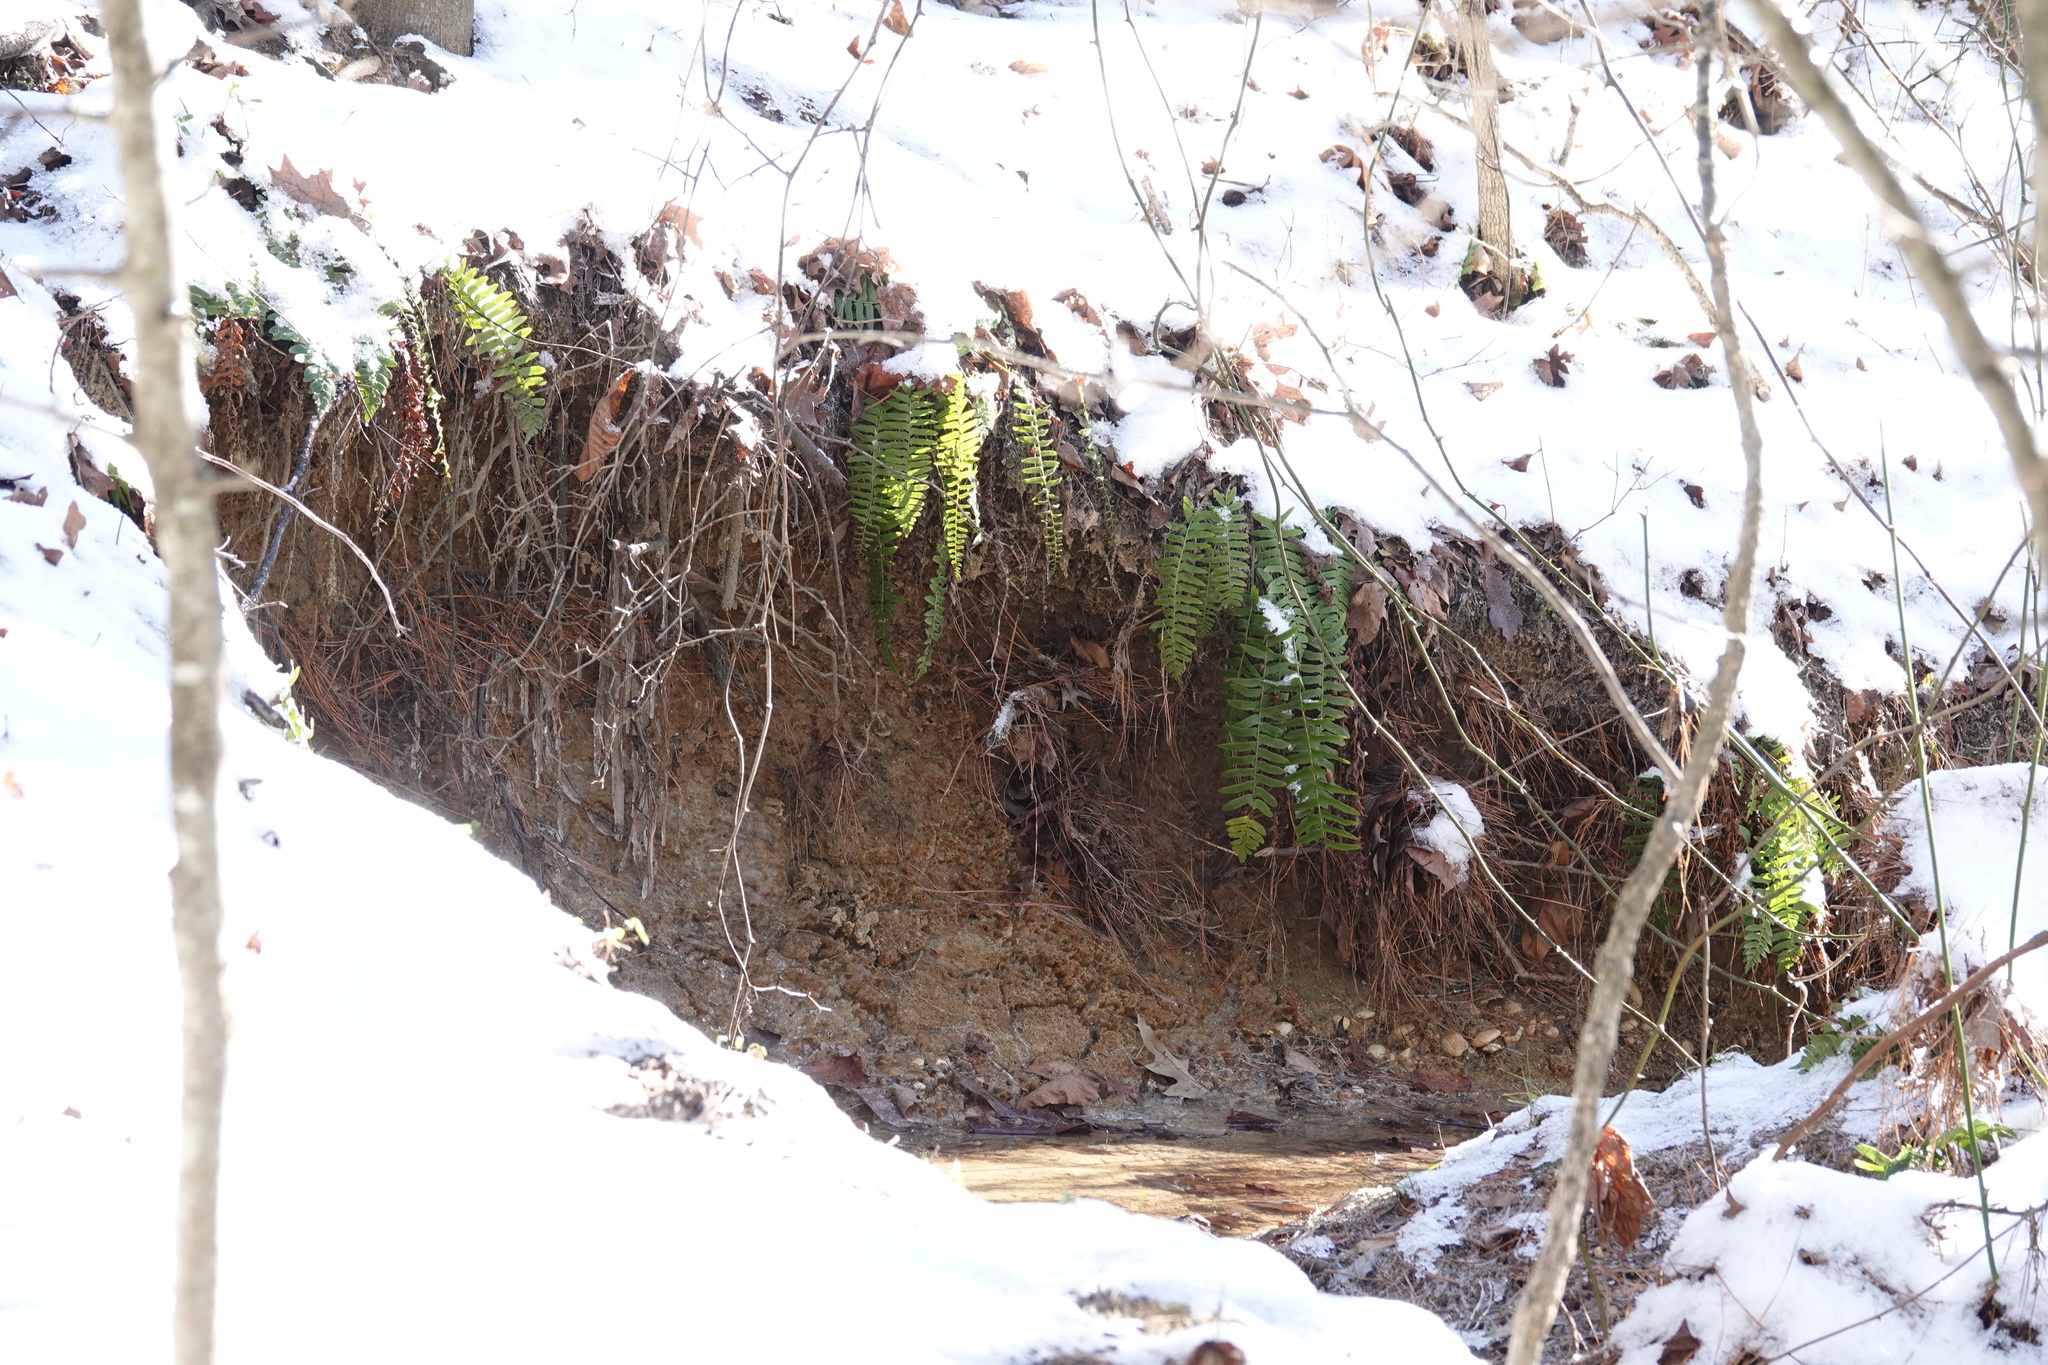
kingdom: Plantae
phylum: Tracheophyta
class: Polypodiopsida
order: Polypodiales
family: Dryopteridaceae
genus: Polystichum
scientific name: Polystichum acrostichoides
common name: Christmas fern
